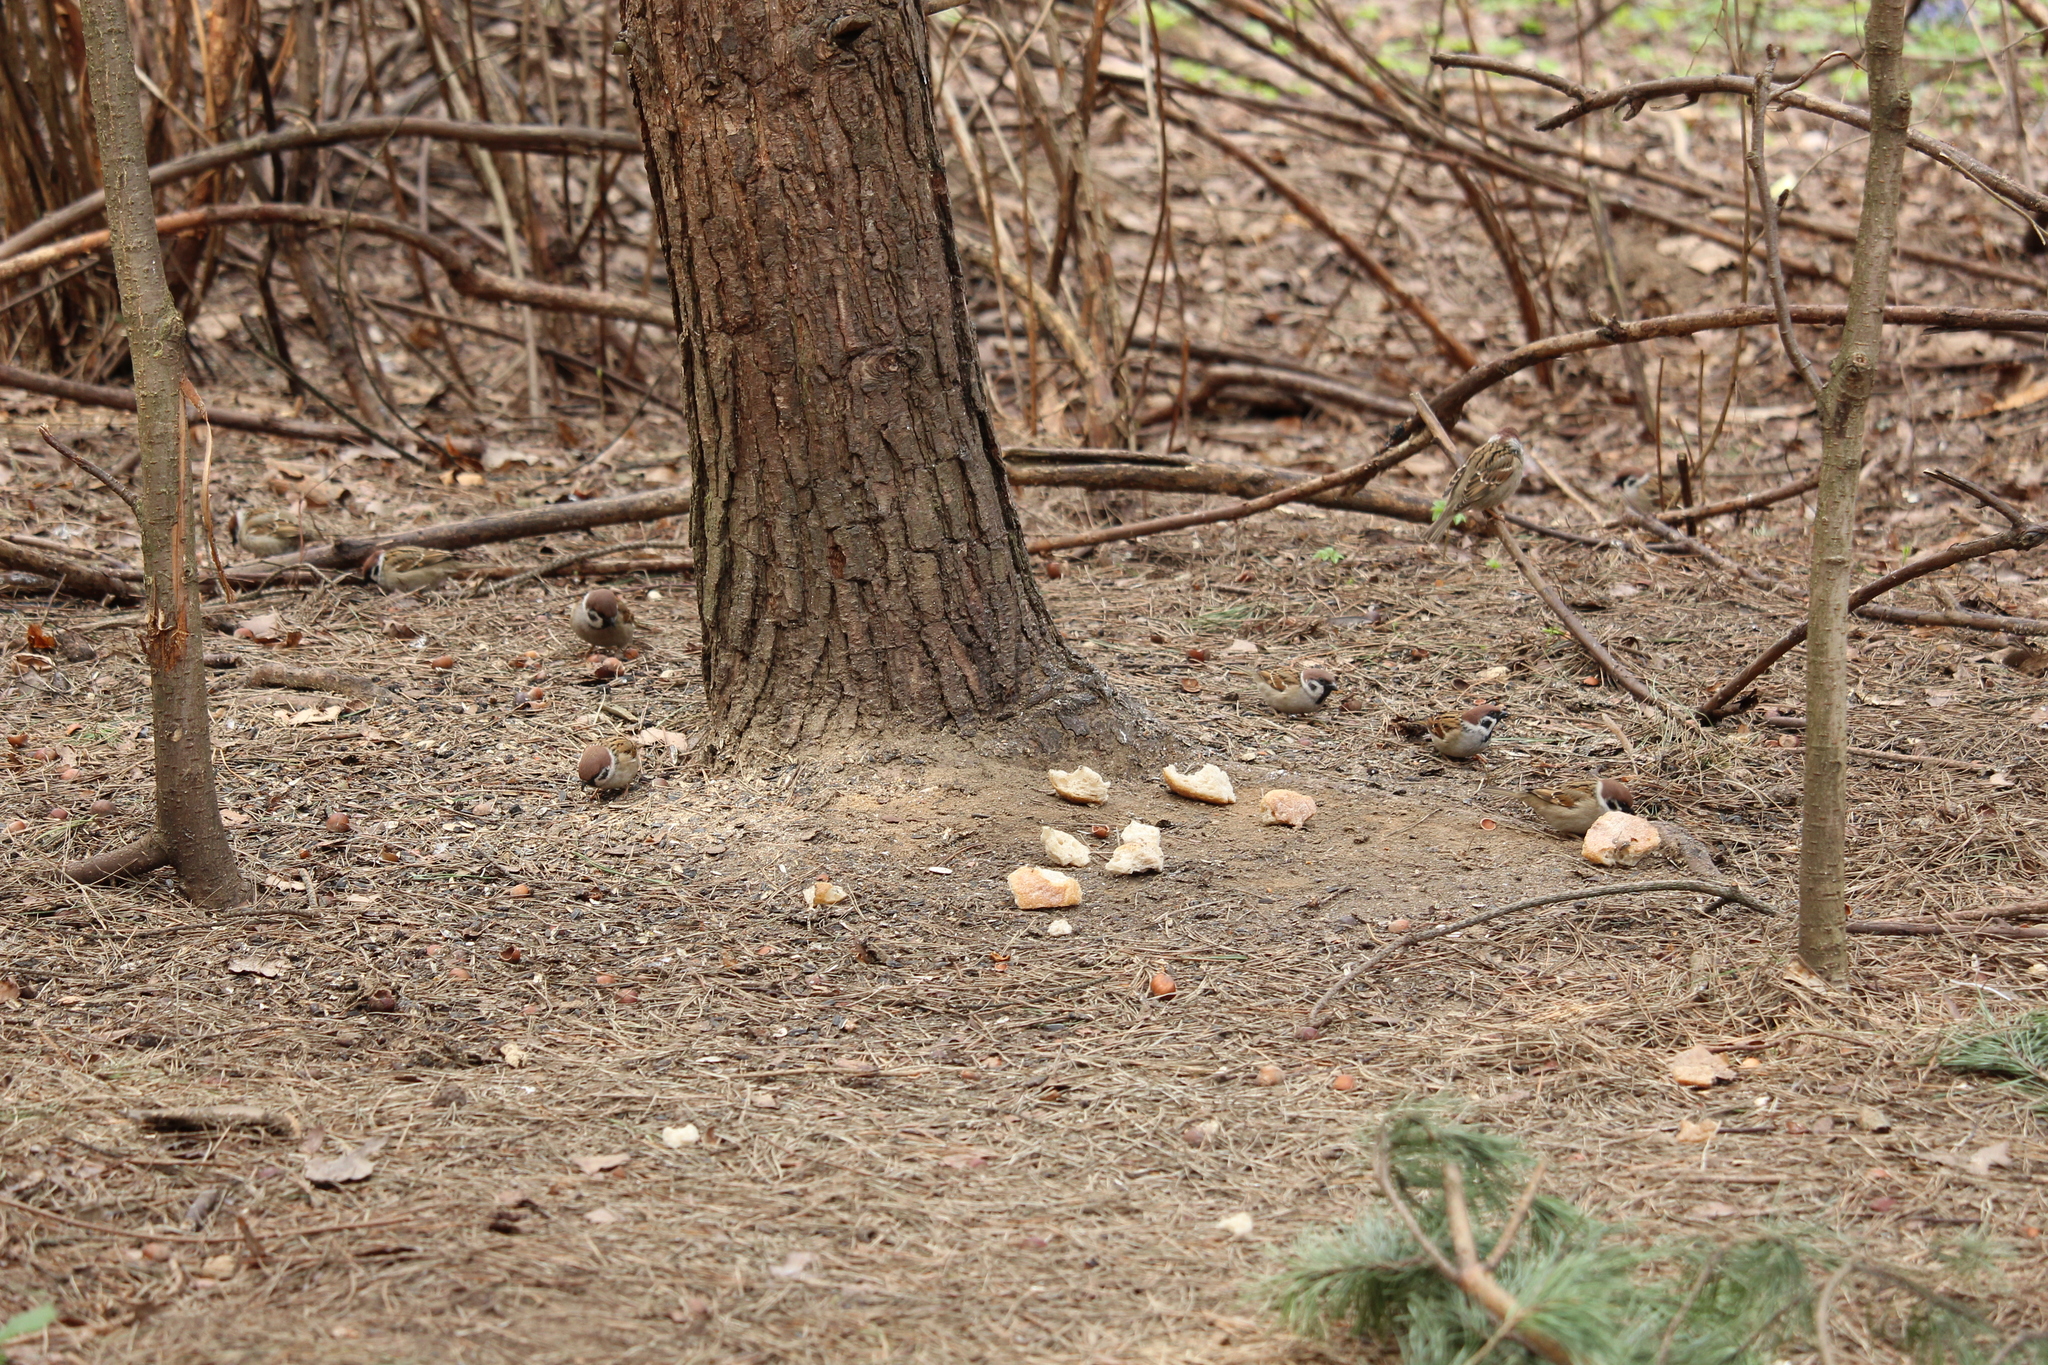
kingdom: Animalia
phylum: Chordata
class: Aves
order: Passeriformes
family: Passeridae
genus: Passer
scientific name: Passer montanus
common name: Eurasian tree sparrow
